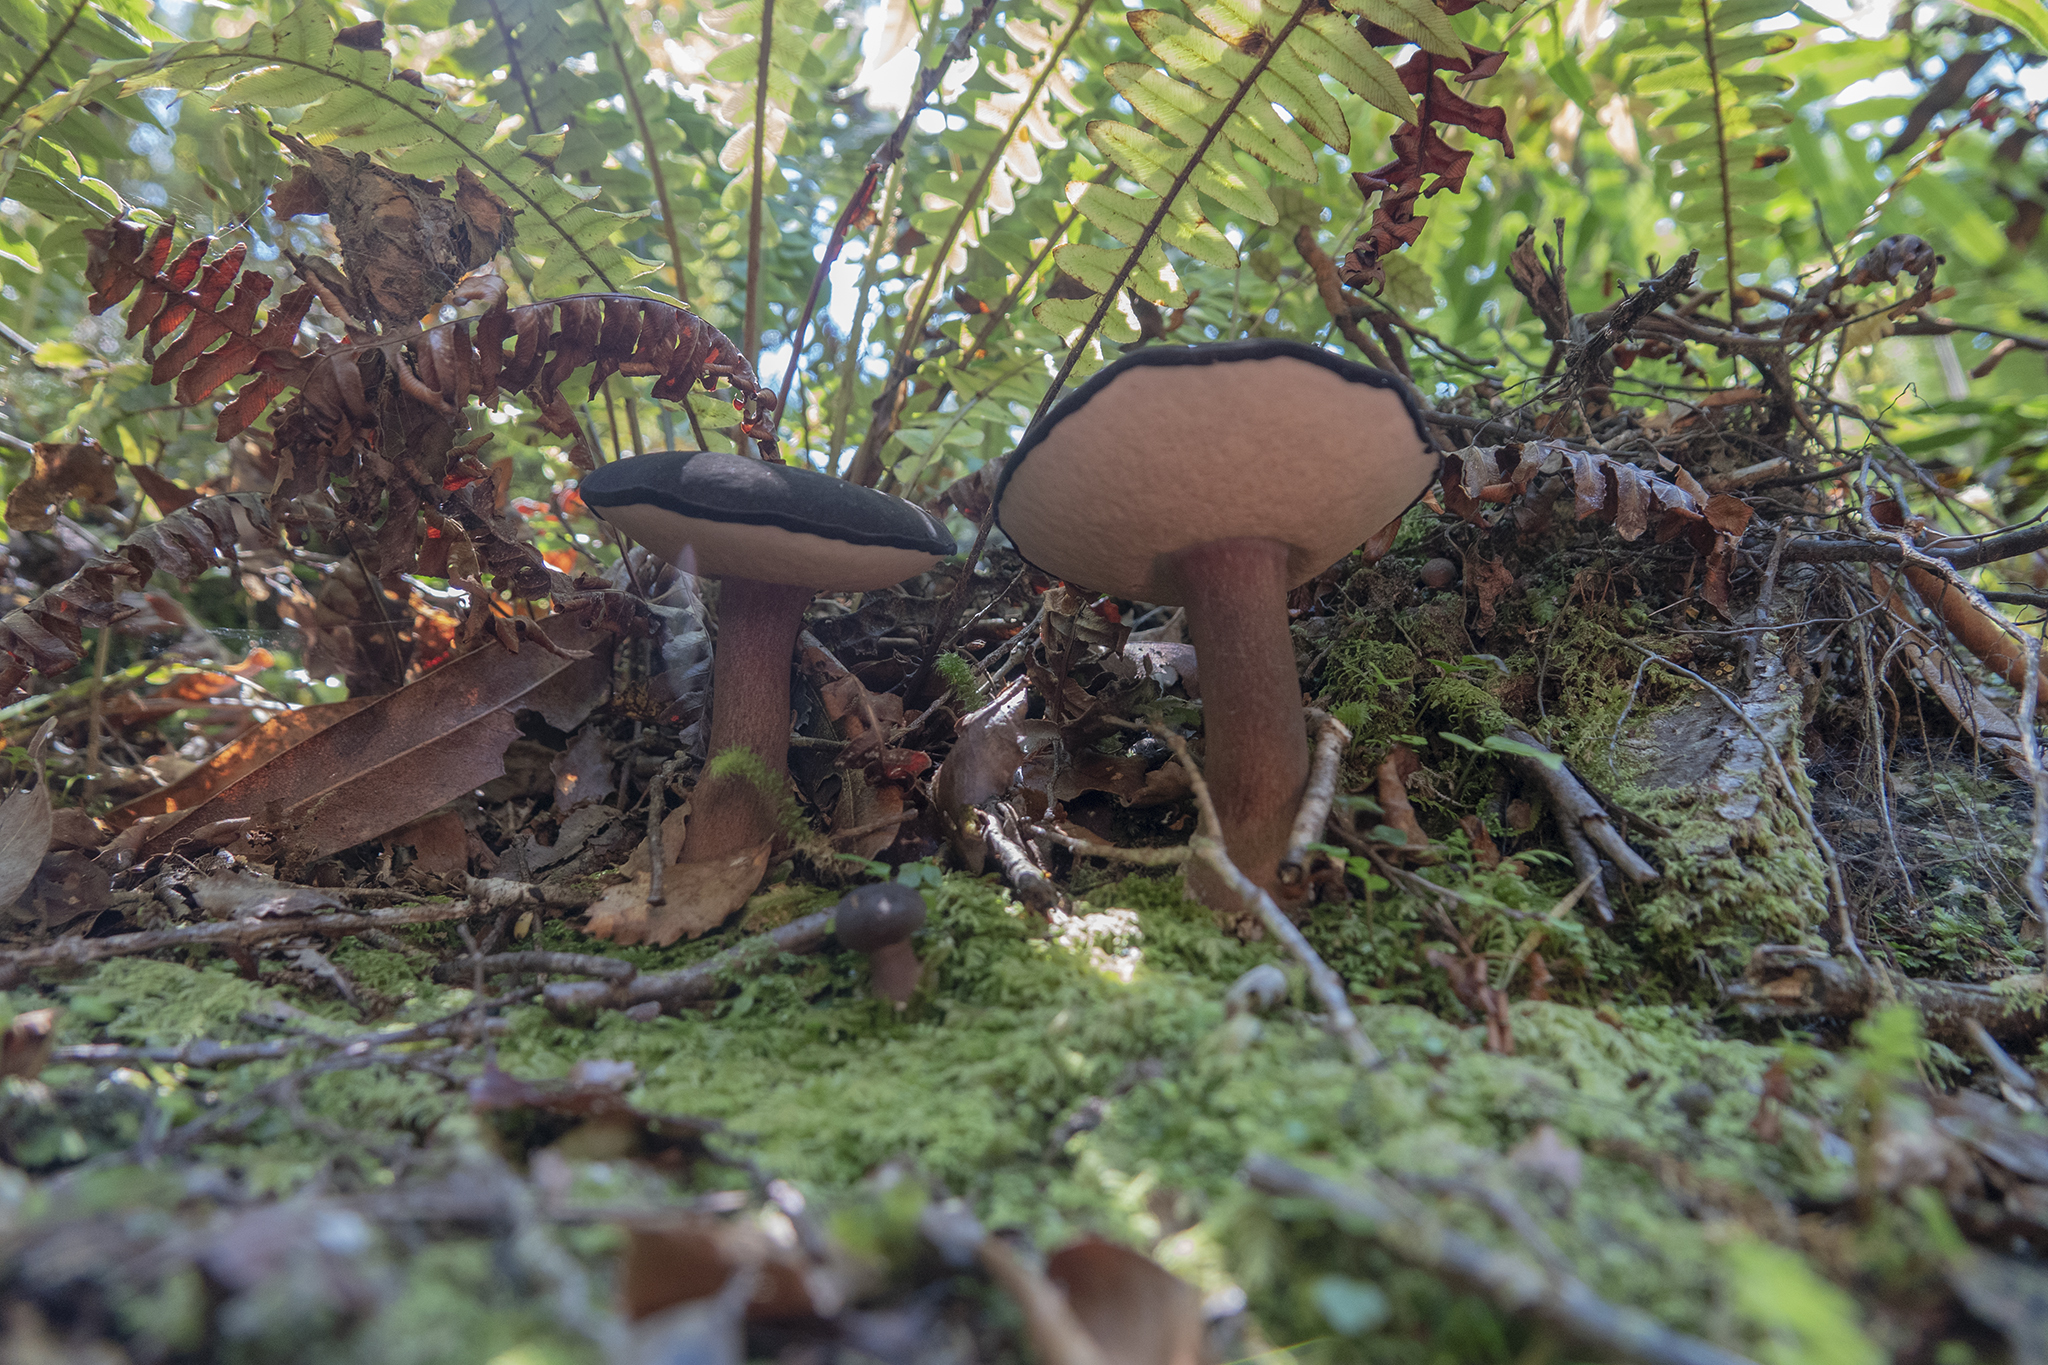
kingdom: Fungi
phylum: Basidiomycota
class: Agaricomycetes
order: Boletales
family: Boletaceae
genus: Porphyrellus
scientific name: Porphyrellus formosus
